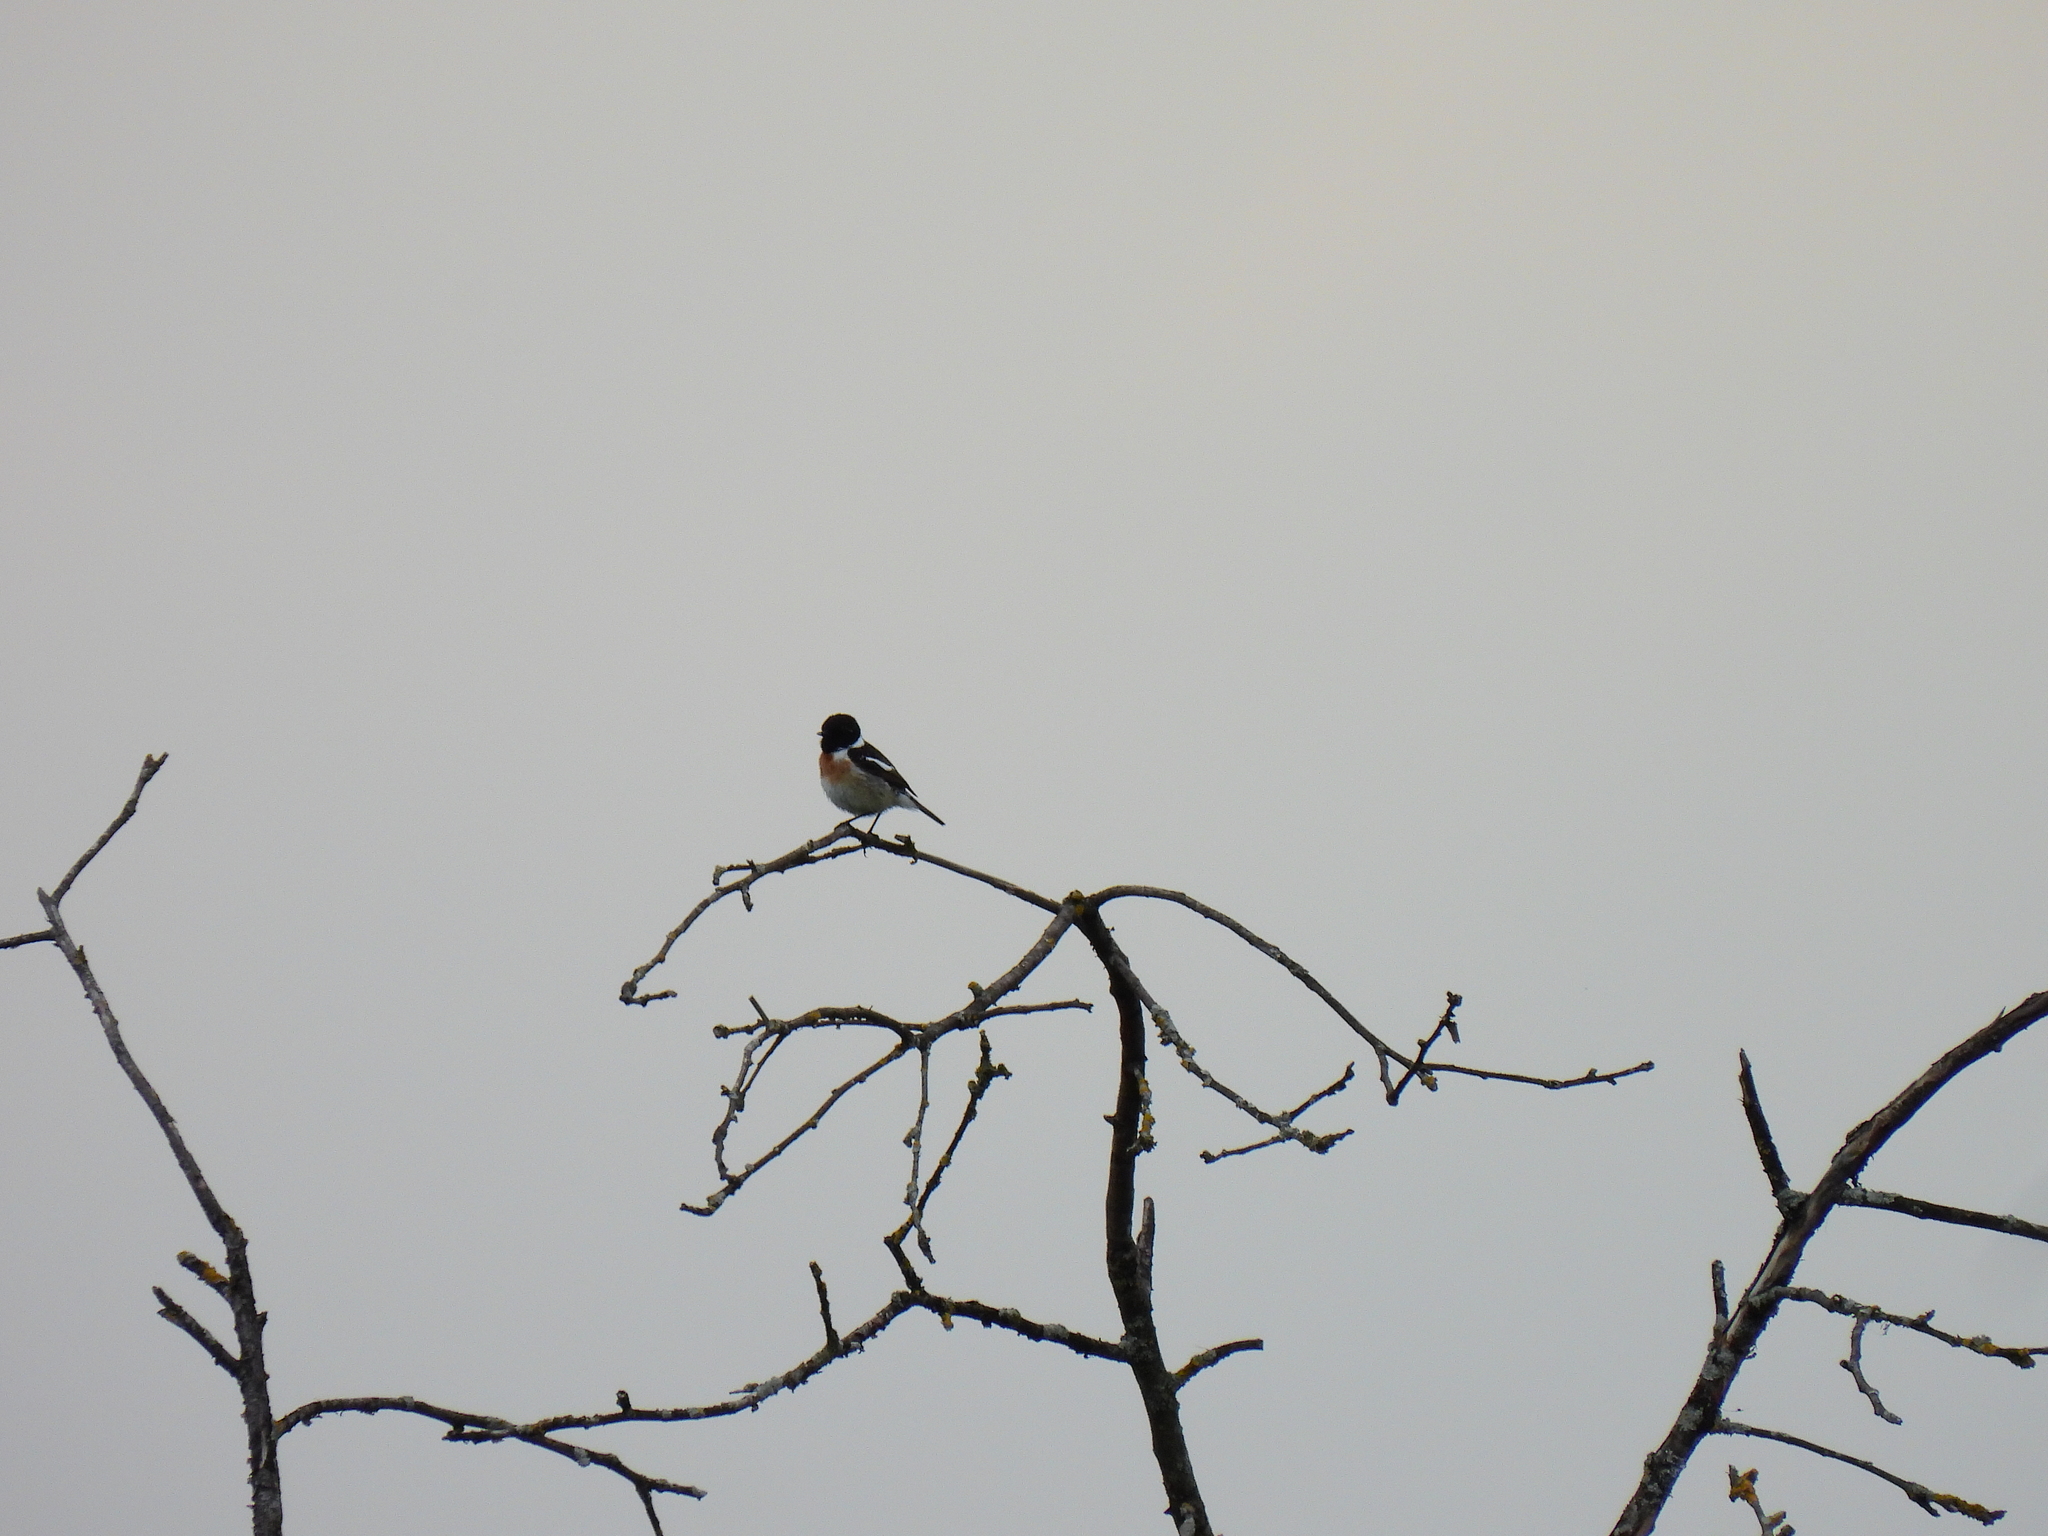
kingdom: Animalia
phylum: Chordata
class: Aves
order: Passeriformes
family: Muscicapidae
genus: Saxicola
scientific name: Saxicola rubicola
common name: European stonechat
